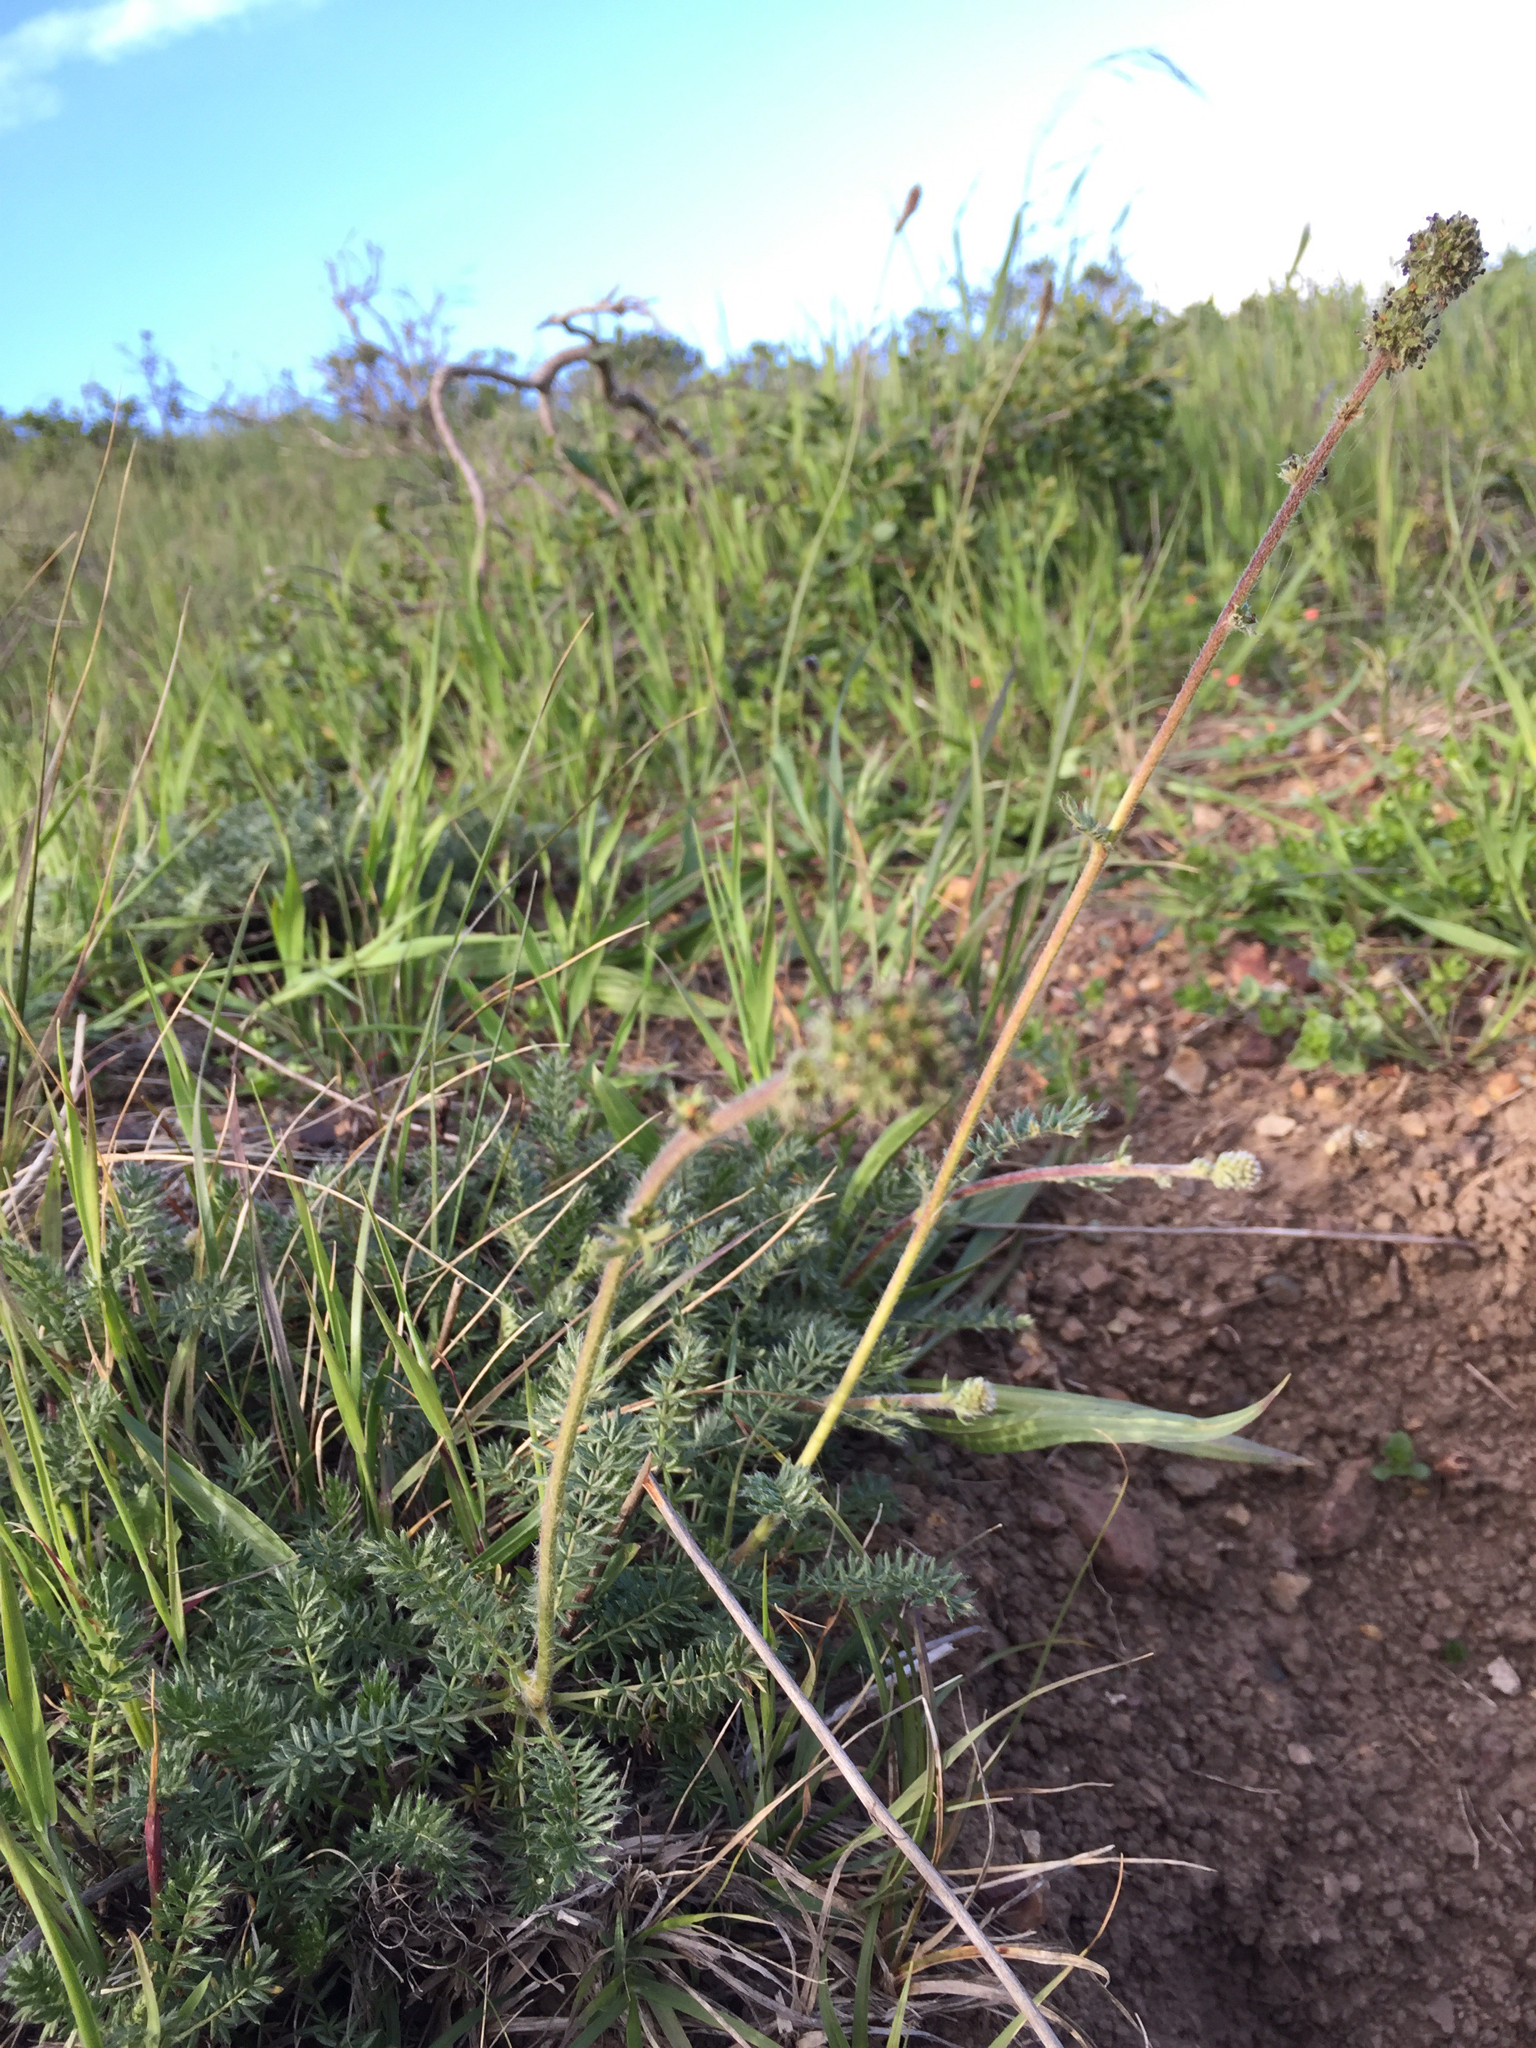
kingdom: Plantae
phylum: Tracheophyta
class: Magnoliopsida
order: Rosales
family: Rosaceae
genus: Acaena
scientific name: Acaena pinnatifida
